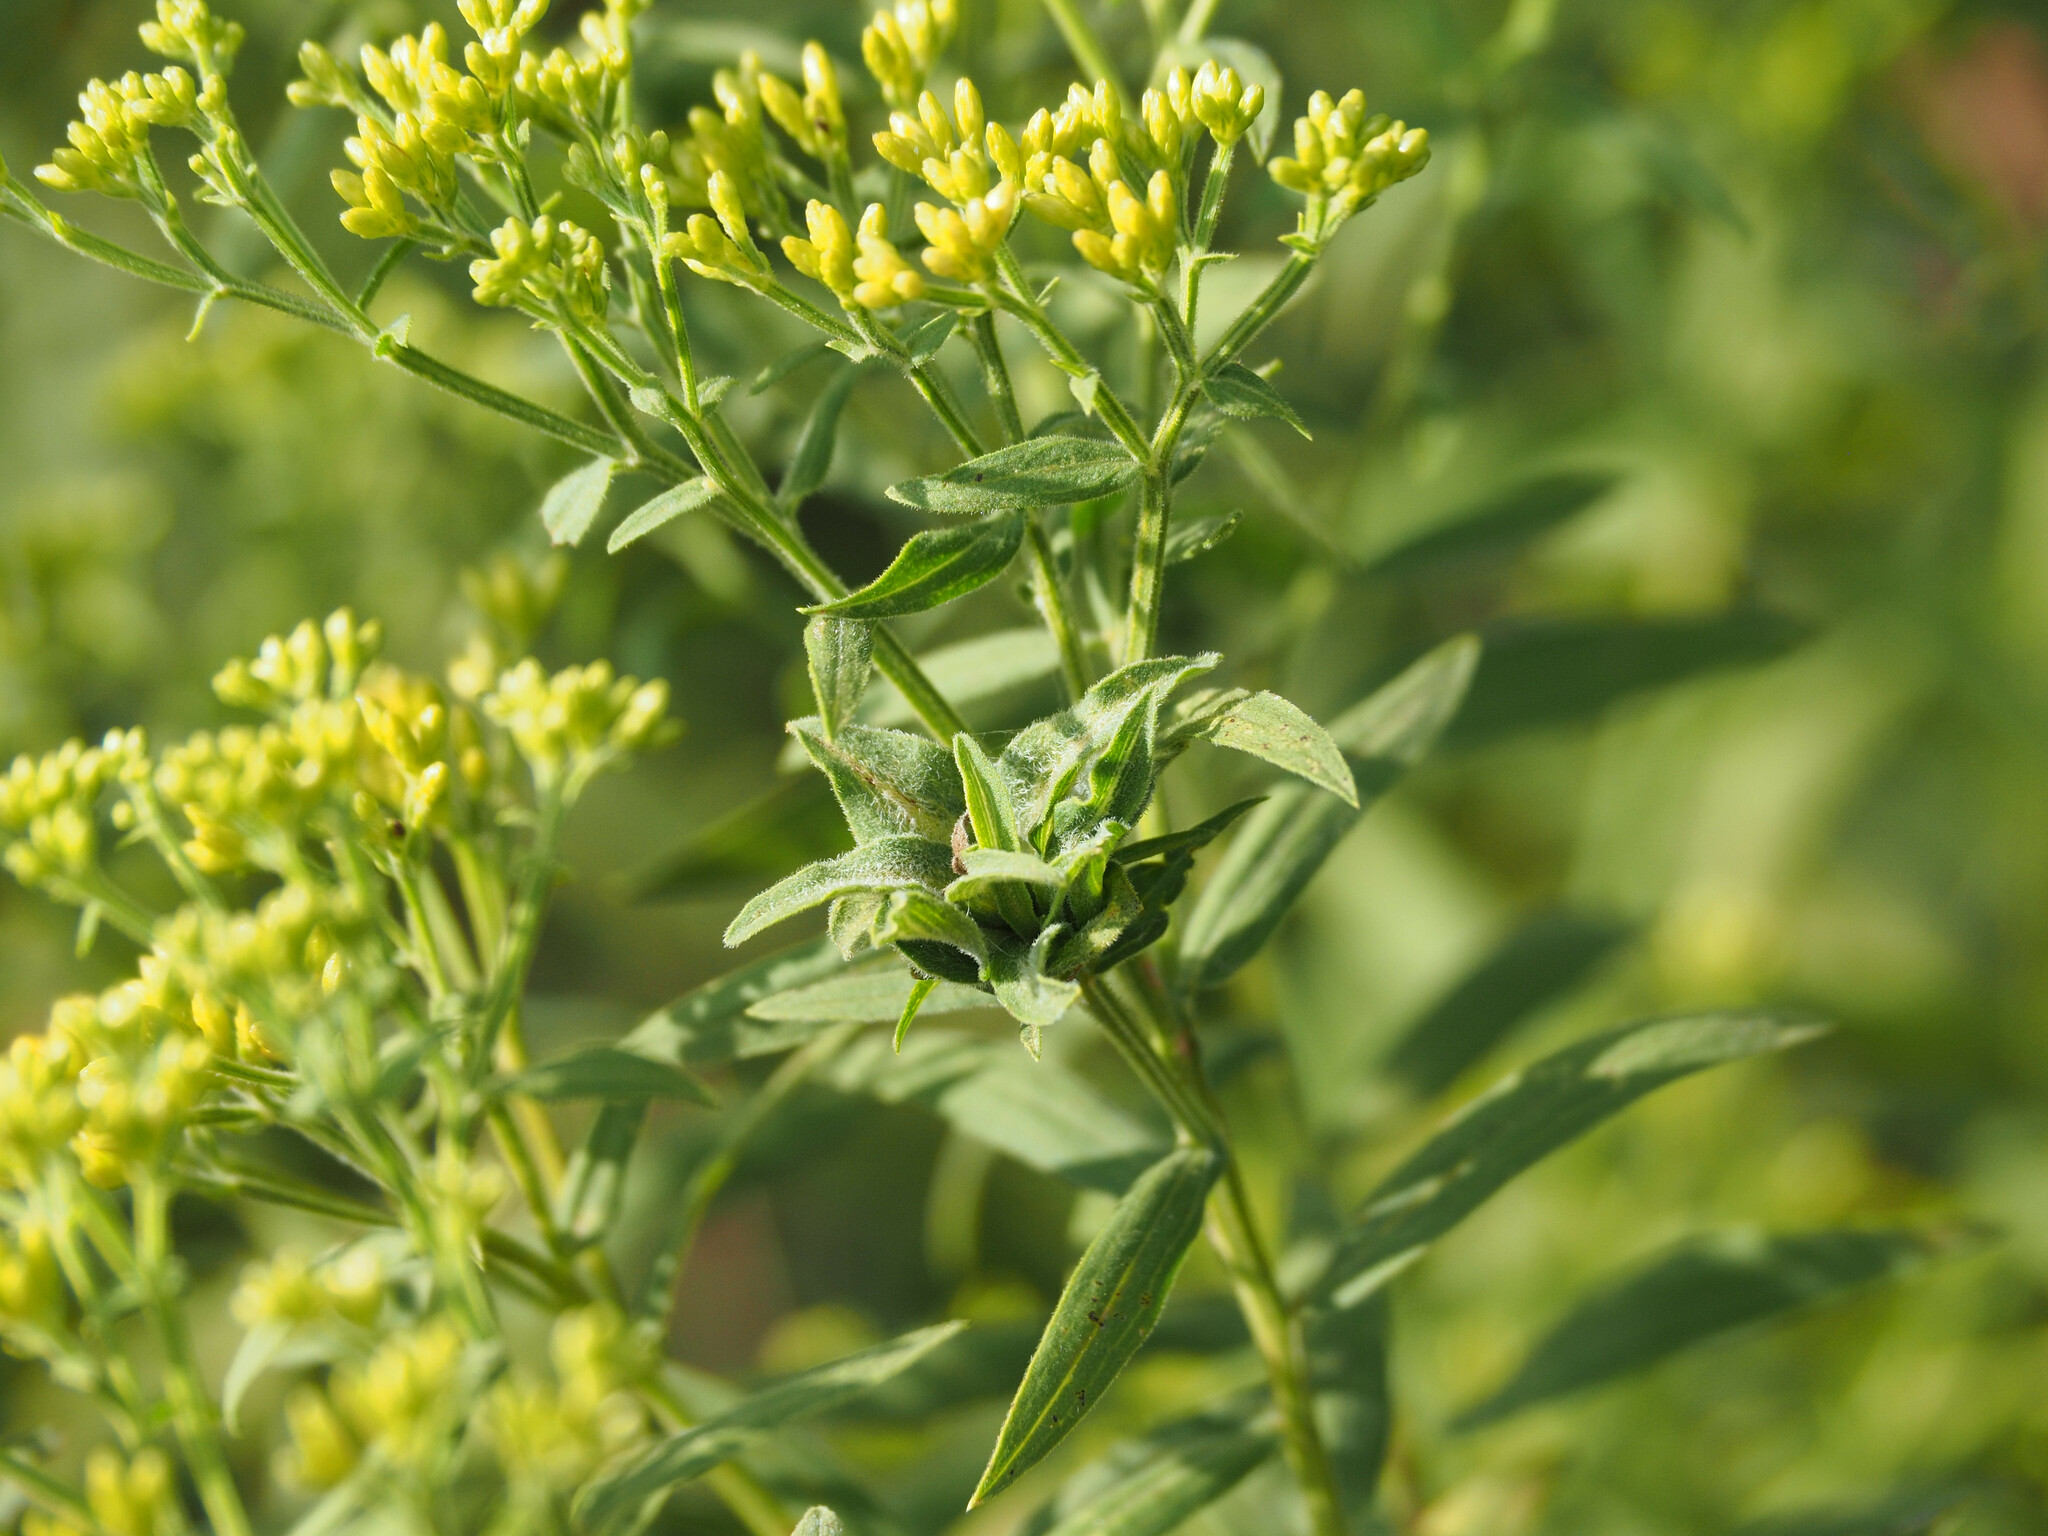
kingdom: Animalia
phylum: Arthropoda
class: Insecta
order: Diptera
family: Cecidomyiidae
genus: Asphondylia
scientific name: Asphondylia pseudorosa
